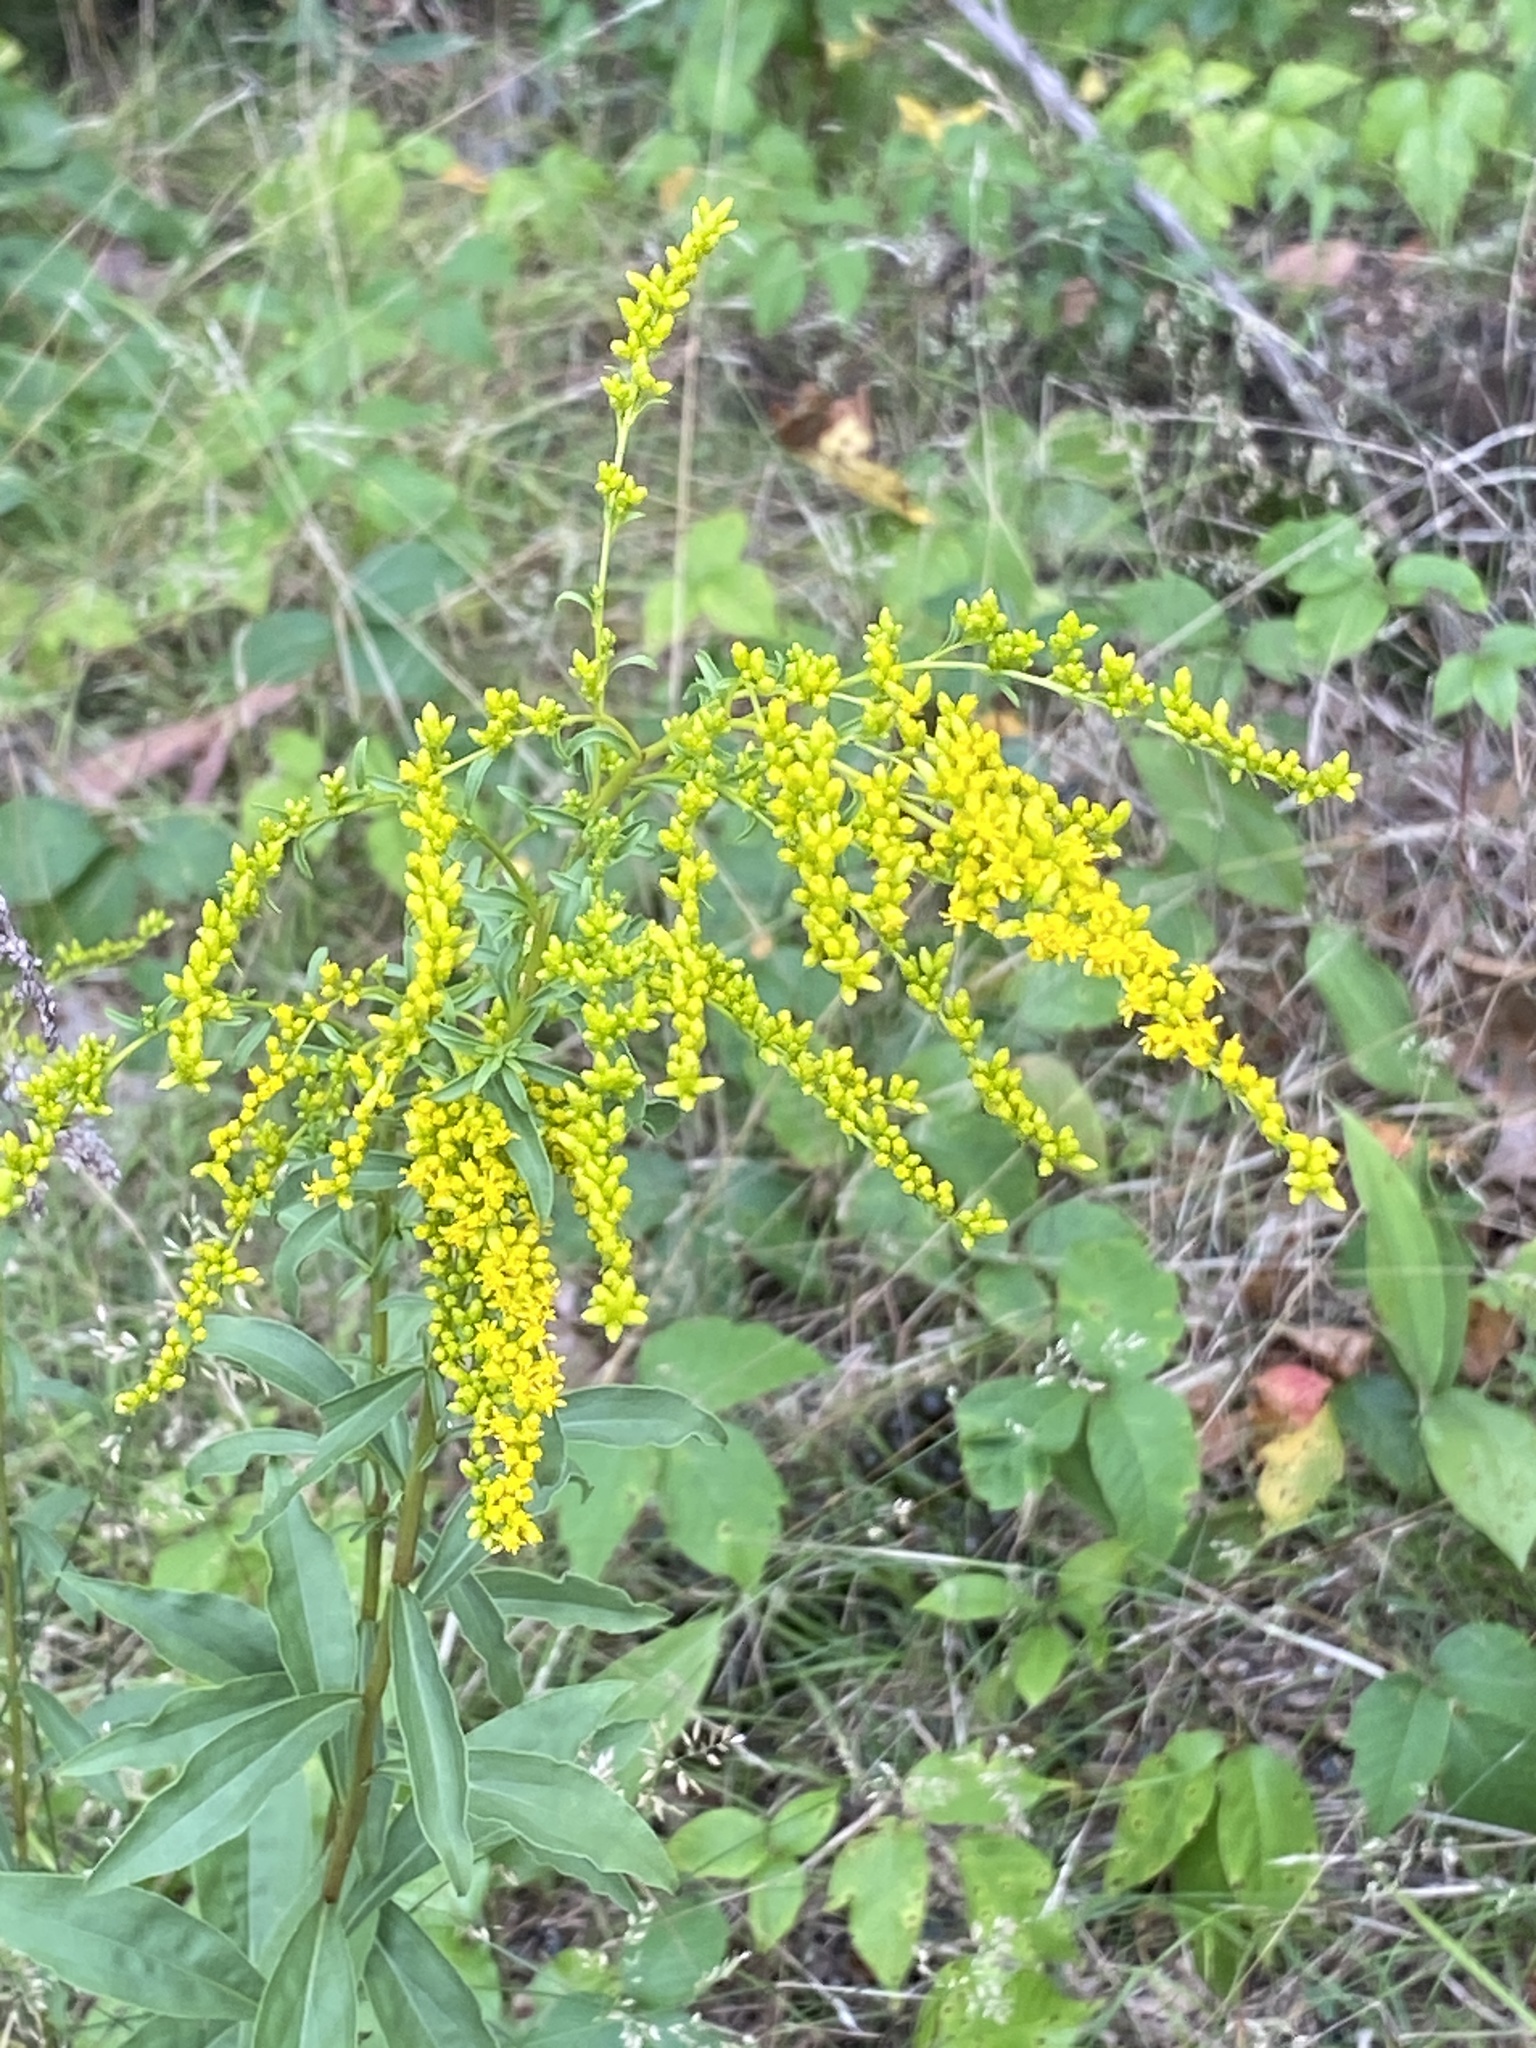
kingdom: Plantae
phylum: Tracheophyta
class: Magnoliopsida
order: Asterales
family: Asteraceae
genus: Solidago
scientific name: Solidago juncea
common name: Early goldenrod
